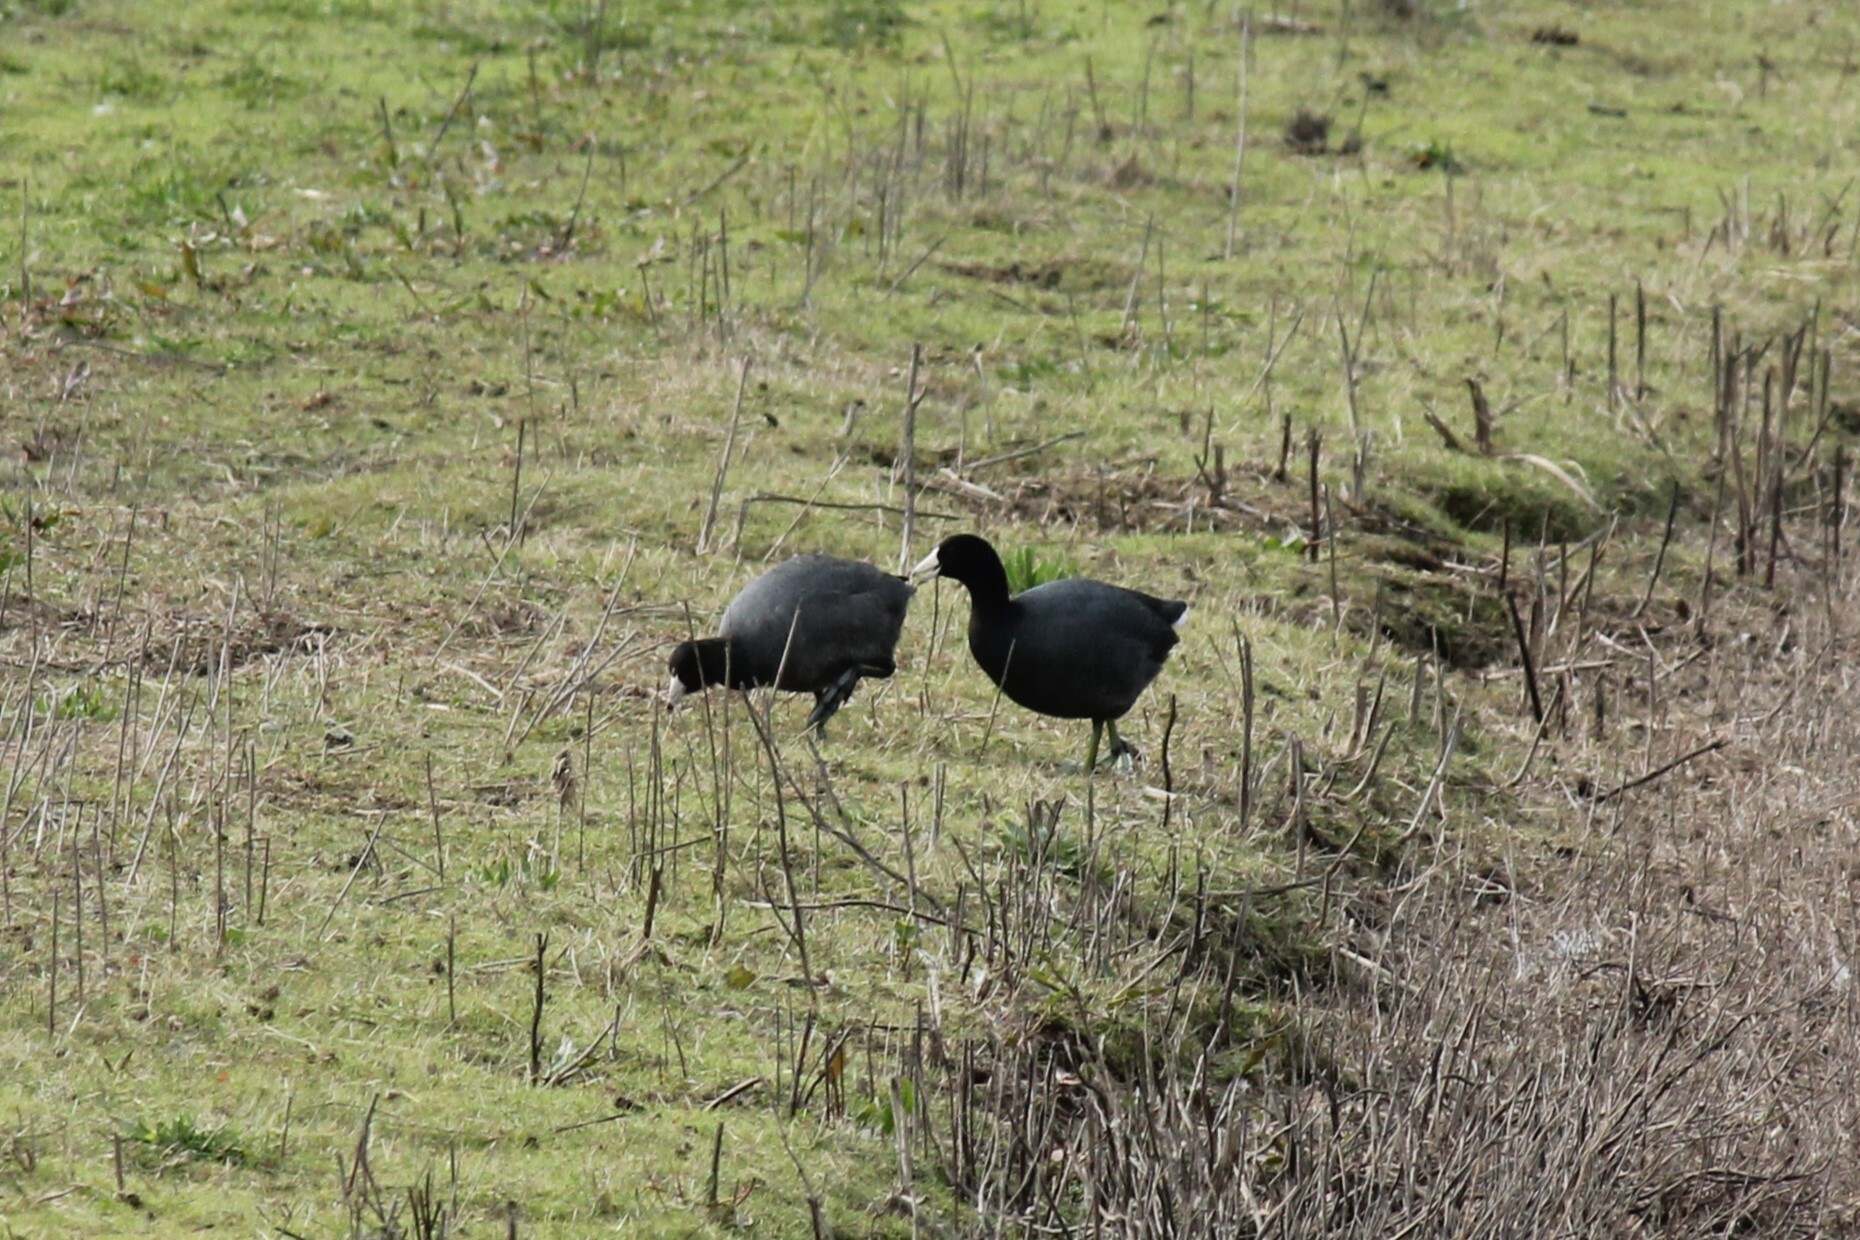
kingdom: Animalia
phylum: Chordata
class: Aves
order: Gruiformes
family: Rallidae
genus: Fulica
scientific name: Fulica americana
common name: American coot
